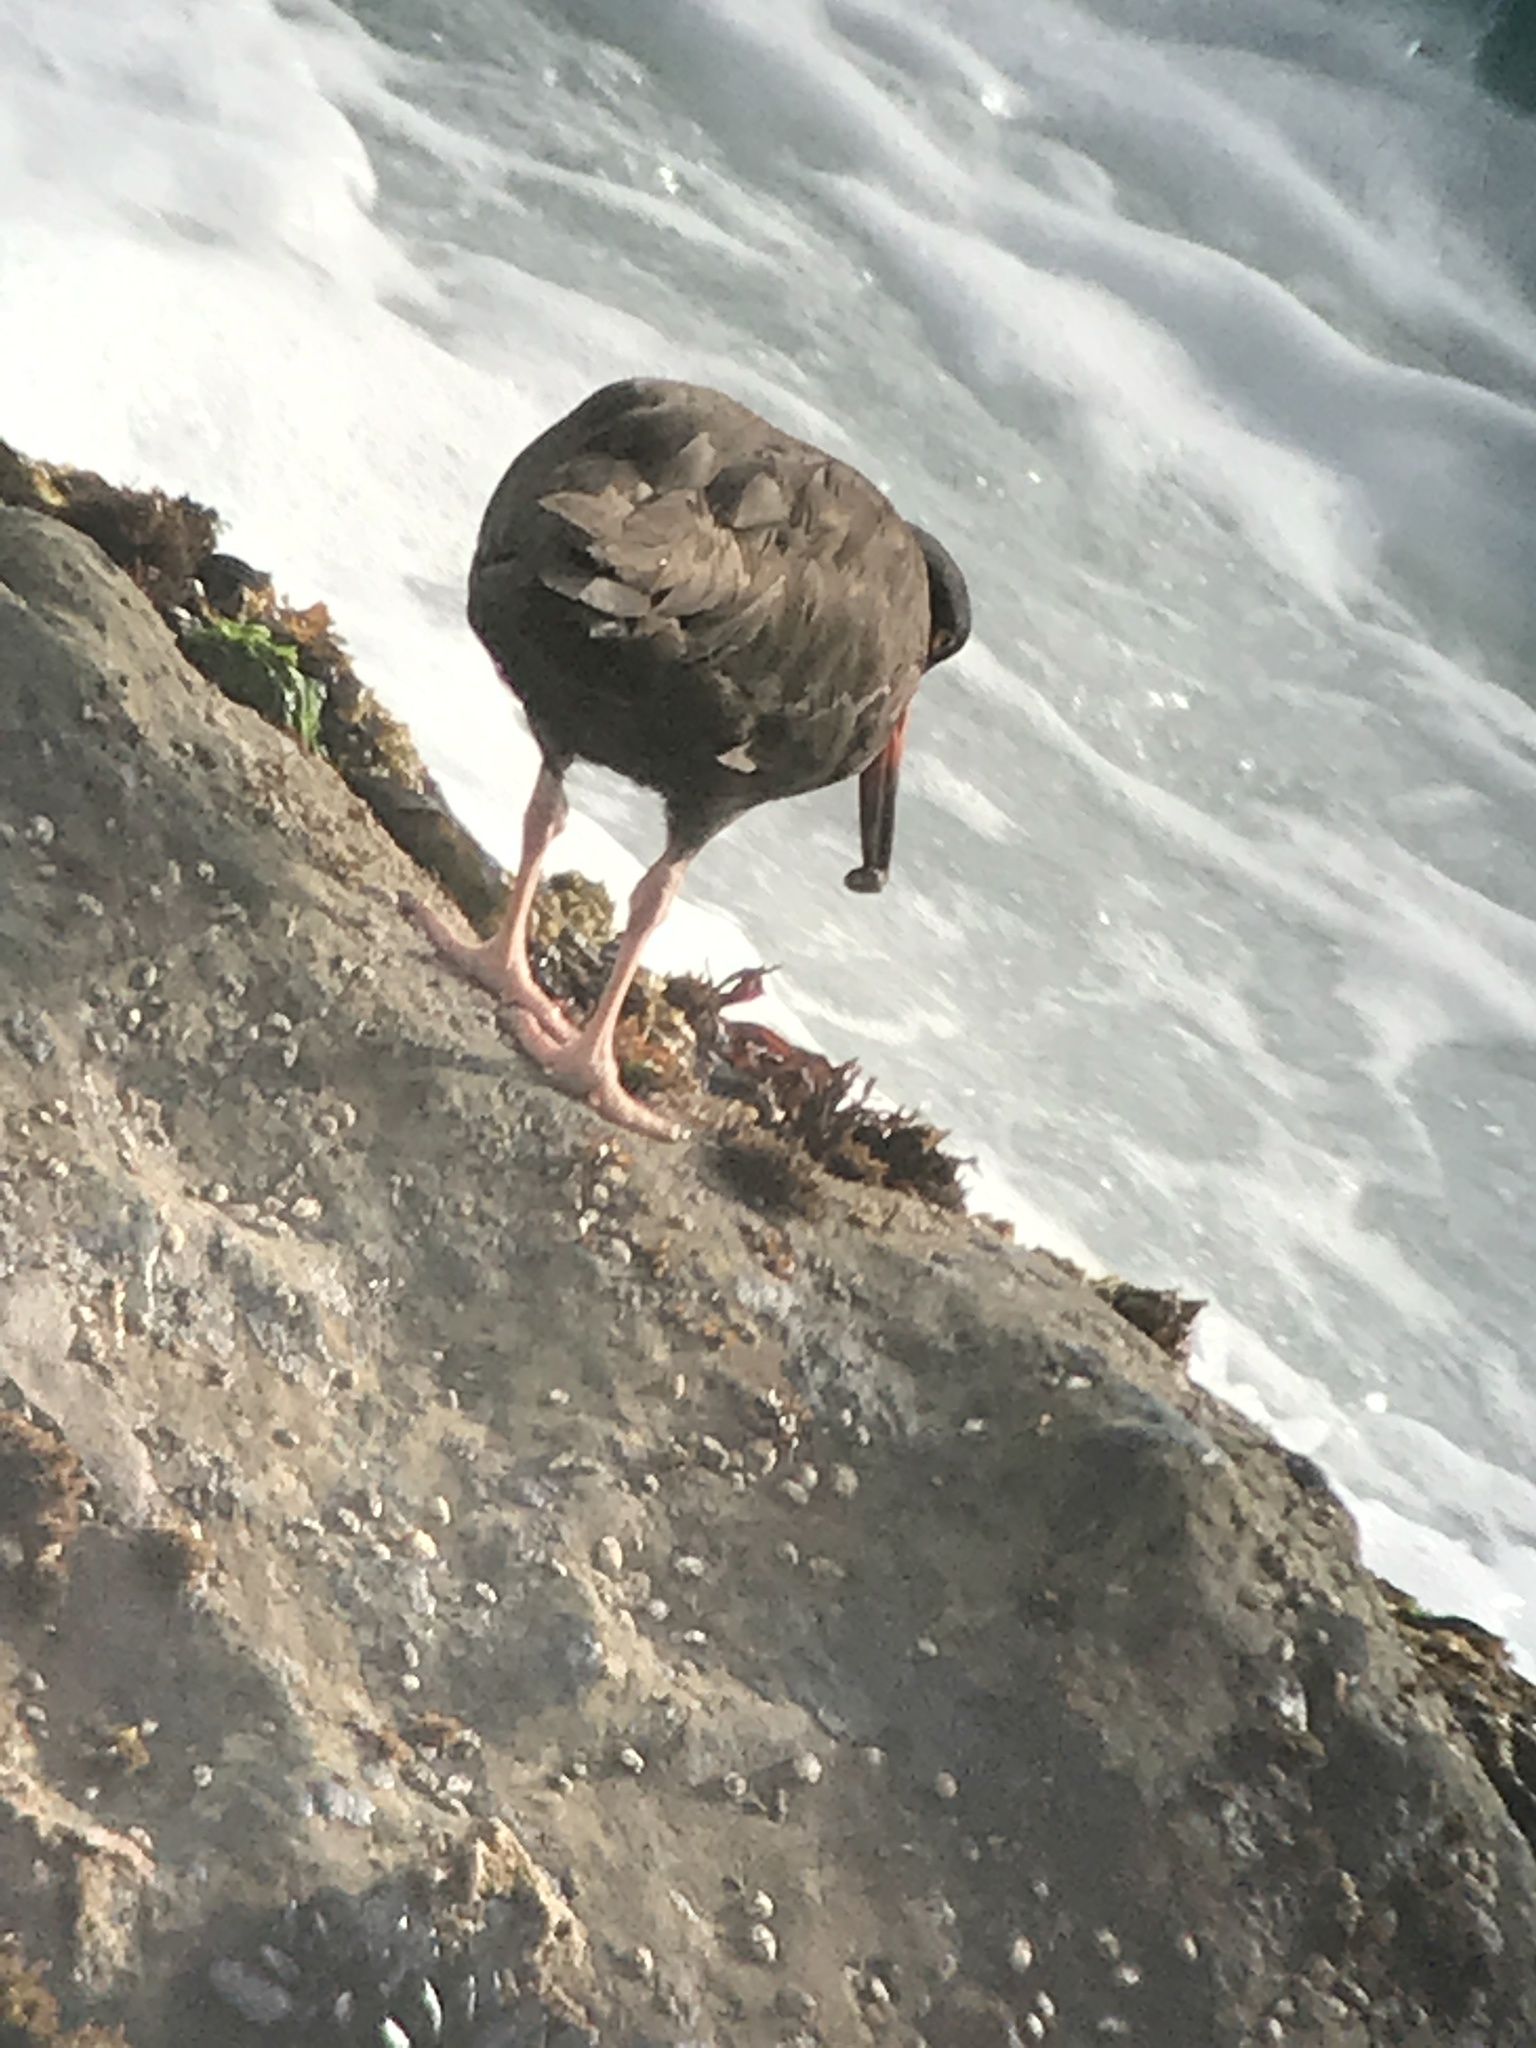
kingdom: Animalia
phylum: Chordata
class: Aves
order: Charadriiformes
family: Haematopodidae
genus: Haematopus
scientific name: Haematopus bachmani
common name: Black oystercatcher
